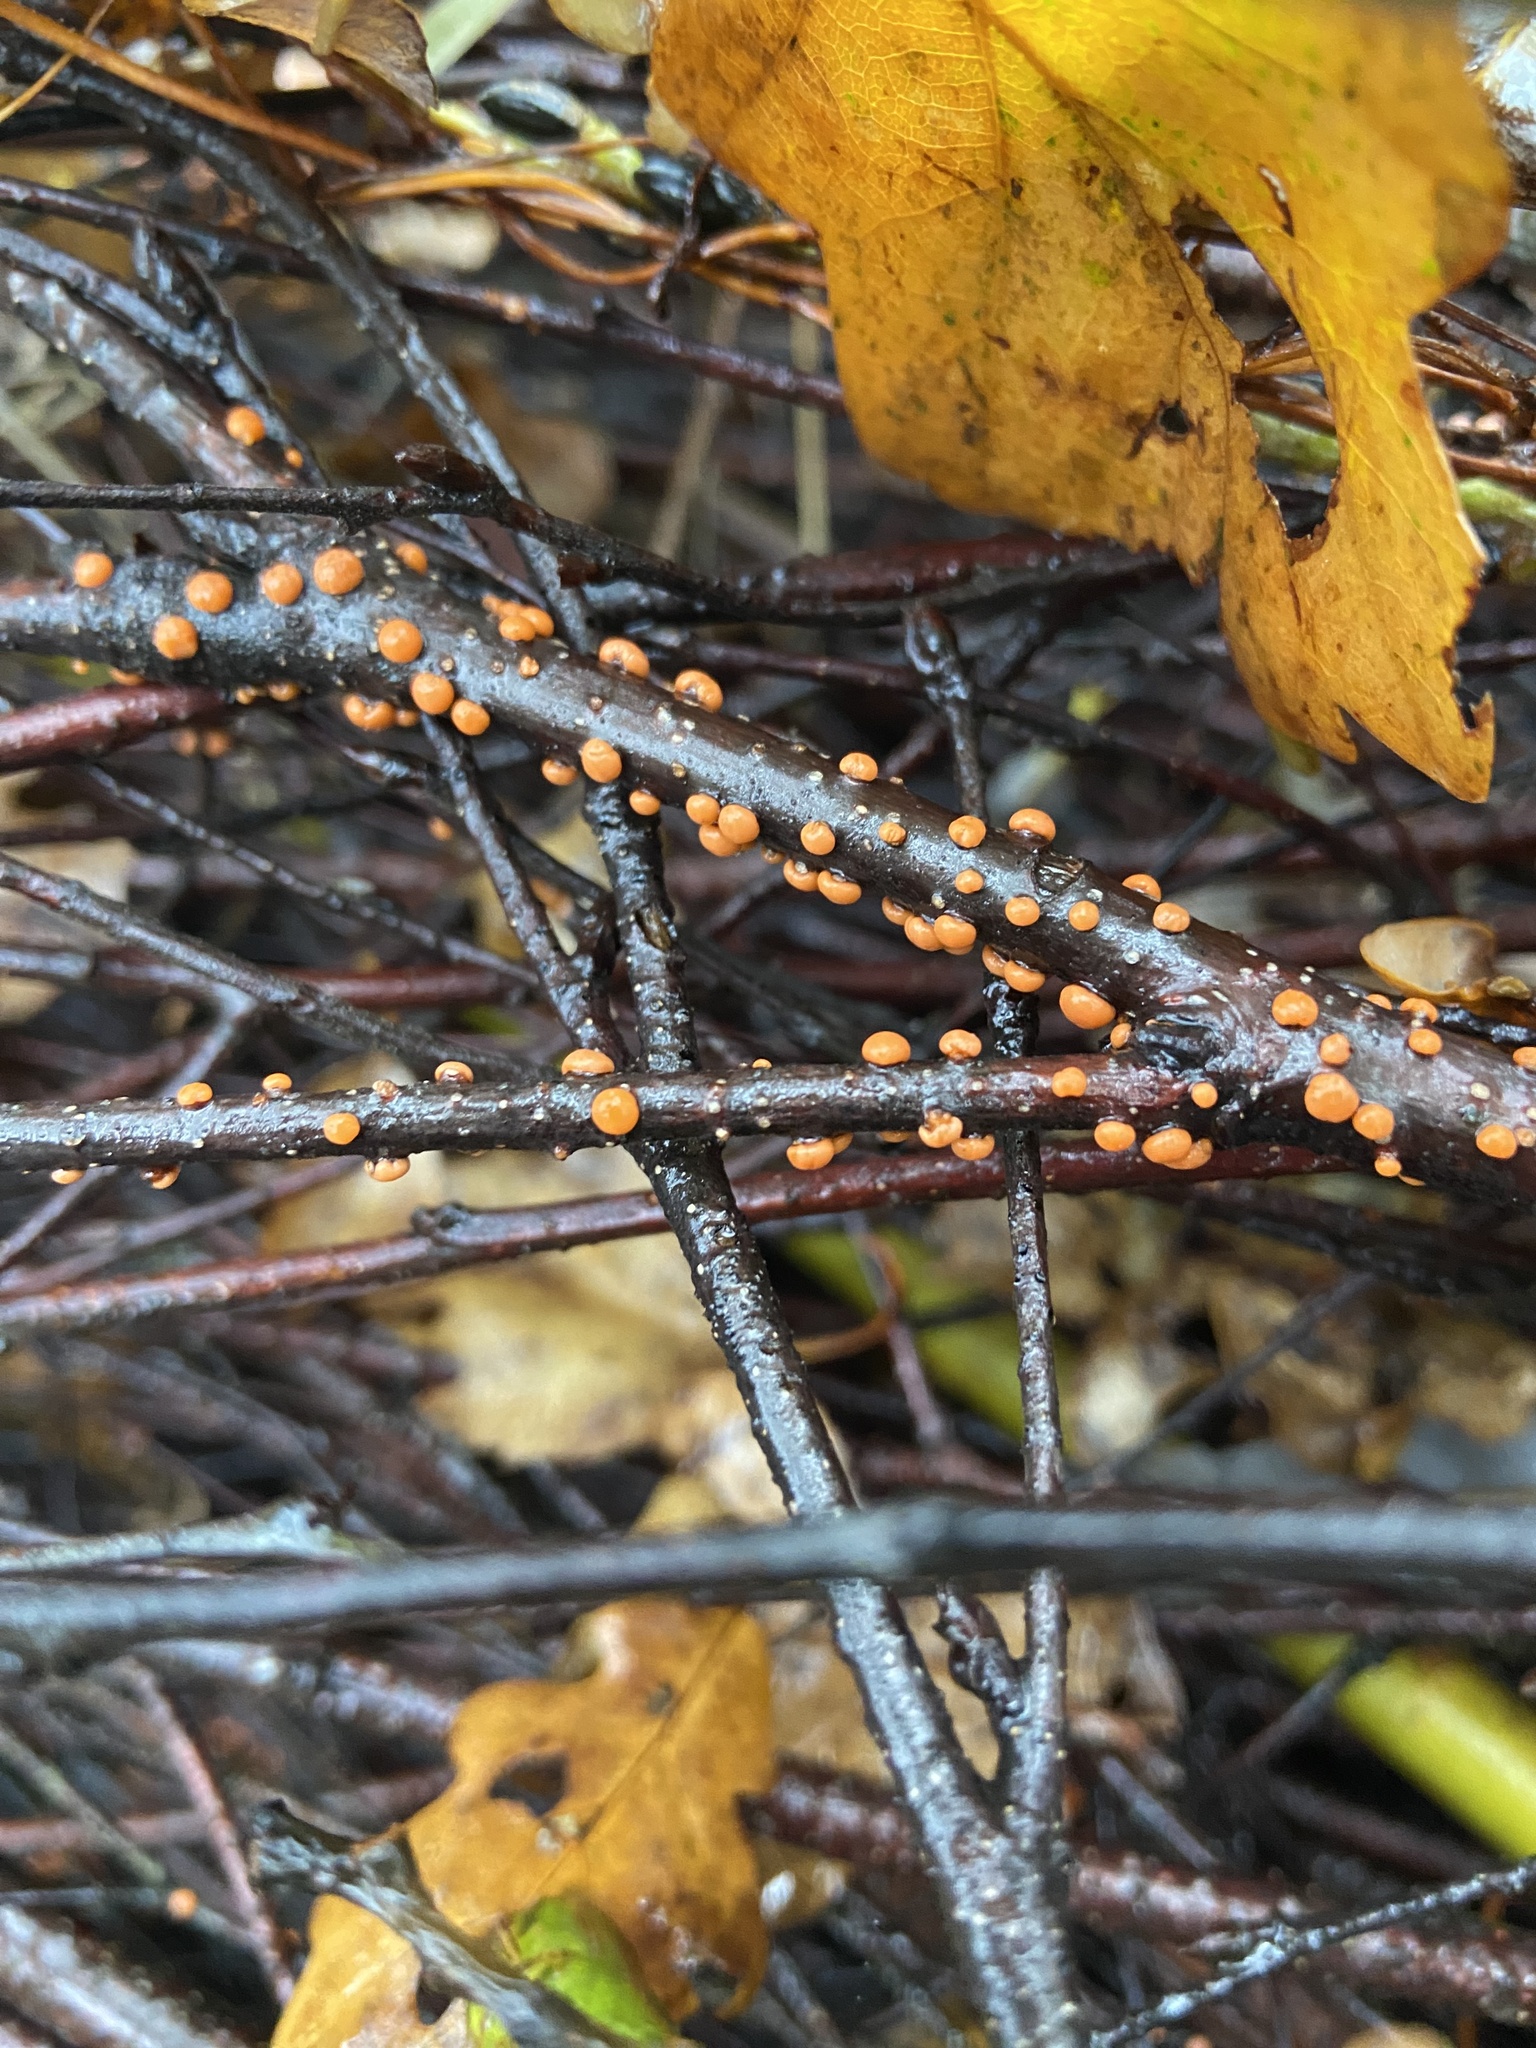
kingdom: Fungi
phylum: Ascomycota
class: Sordariomycetes
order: Hypocreales
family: Nectriaceae
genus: Nectria
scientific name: Nectria cinnabarina
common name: Coral spot
